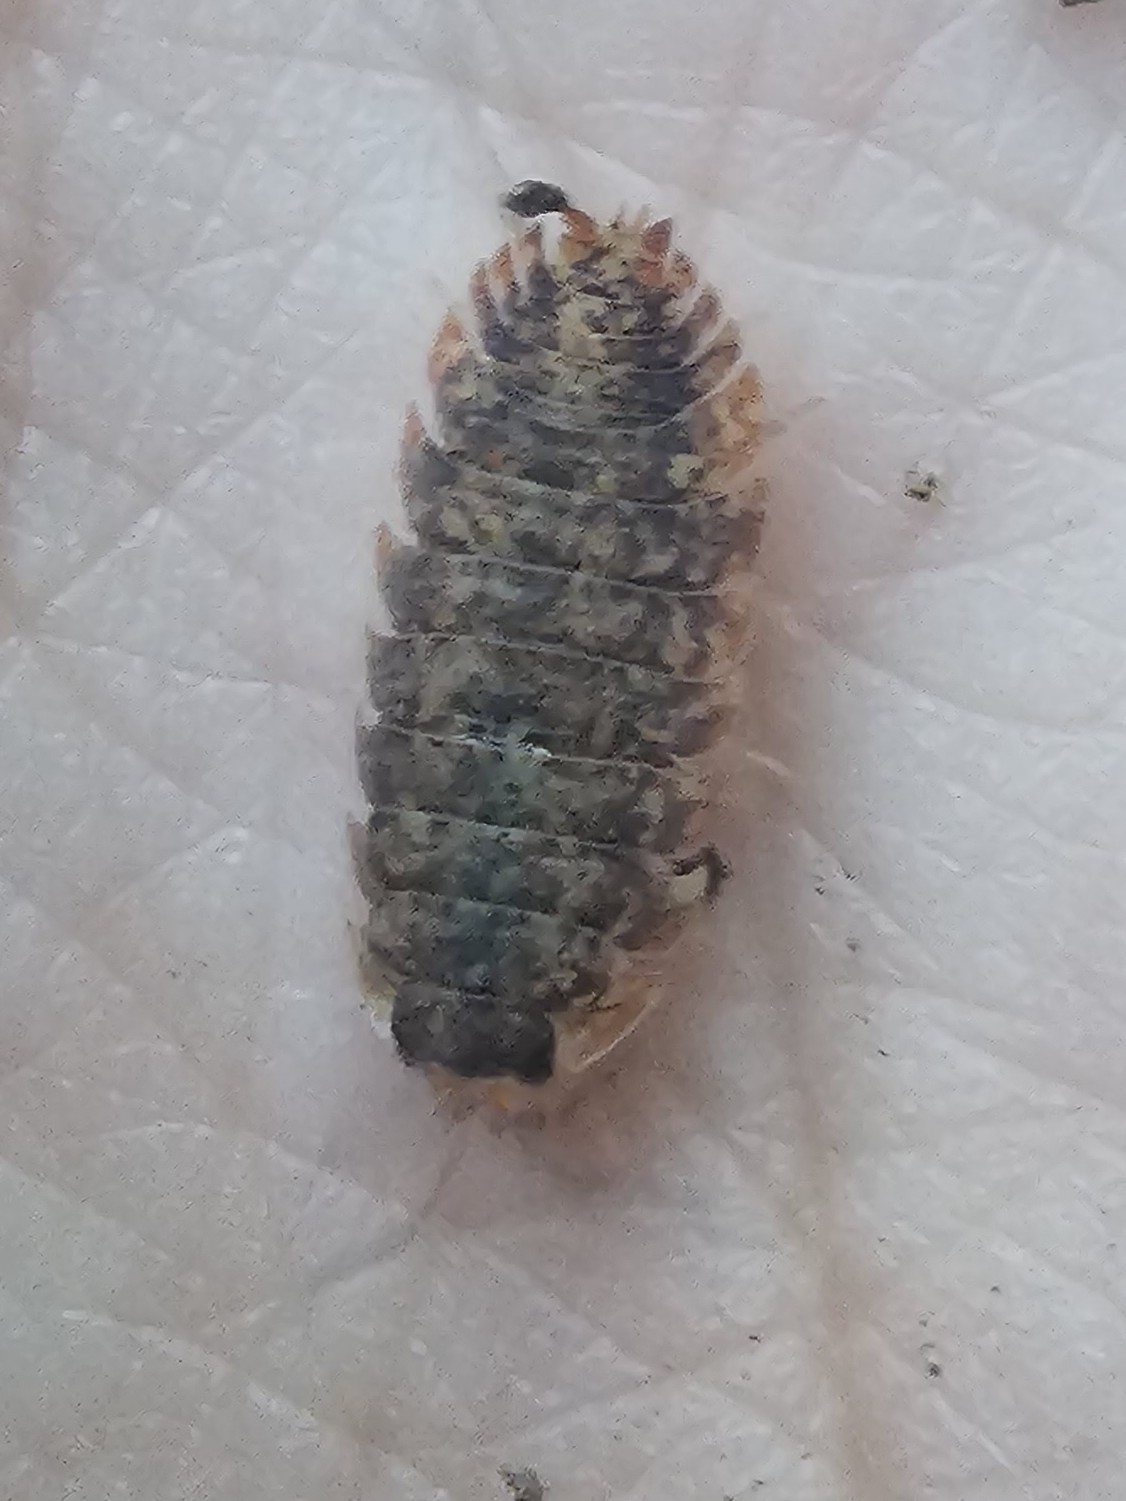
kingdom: Animalia
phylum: Arthropoda
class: Malacostraca
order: Isopoda
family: Porcellionidae
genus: Porcellio
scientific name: Porcellio scaber
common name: Common rough woodlouse
